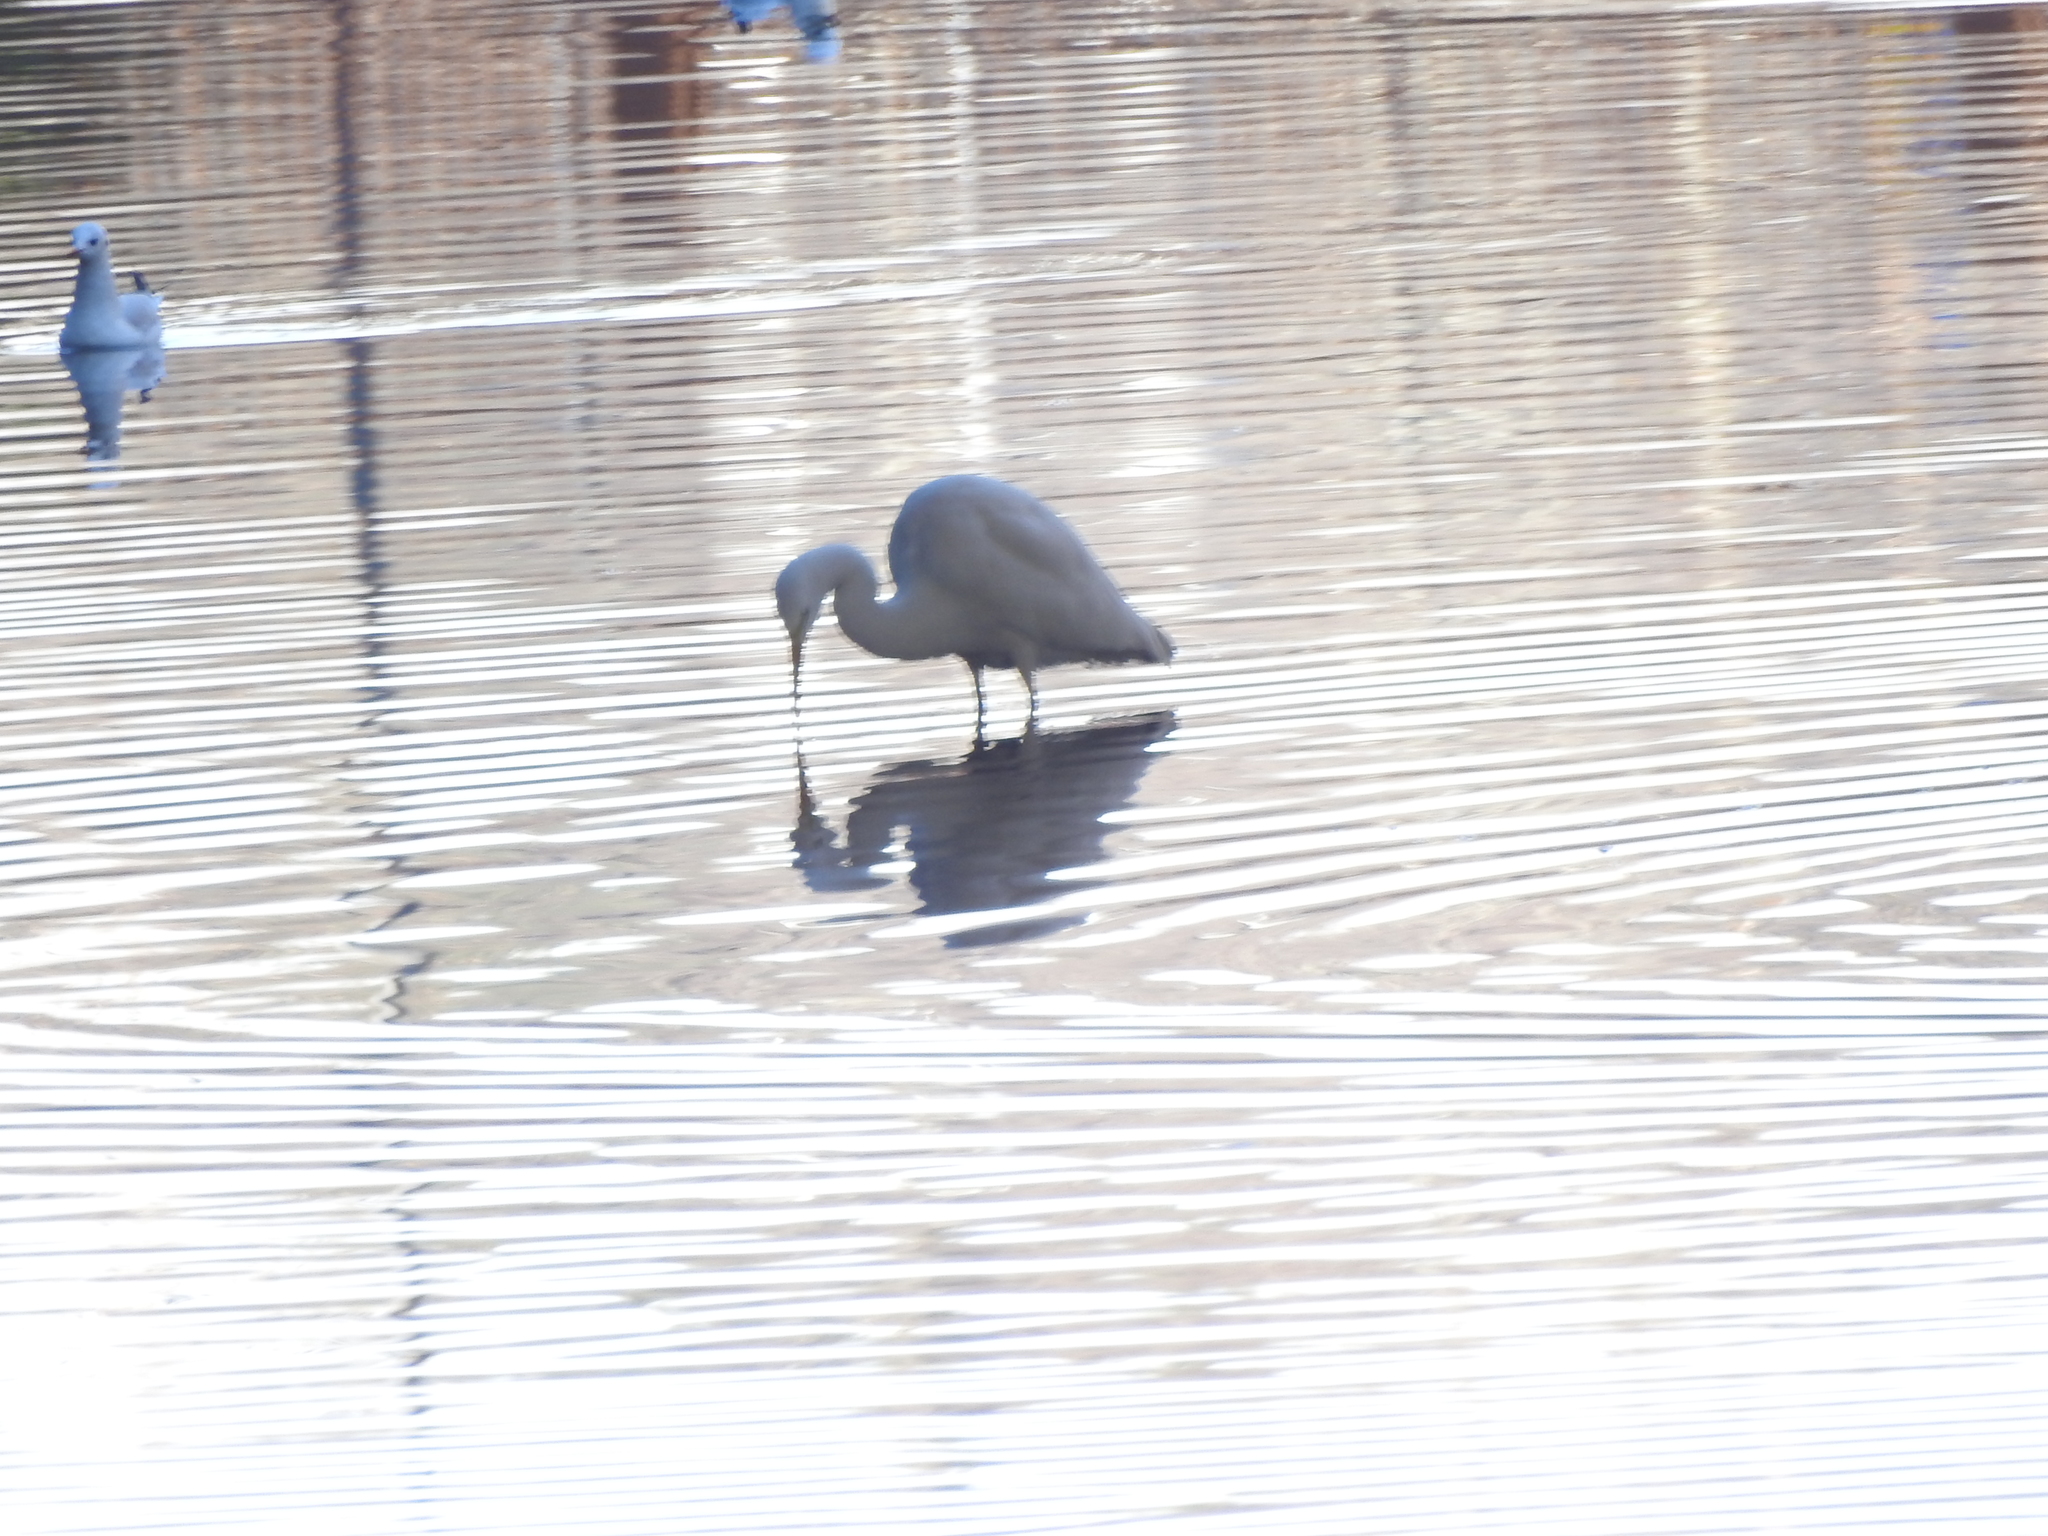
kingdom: Animalia
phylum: Chordata
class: Aves
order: Pelecaniformes
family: Ardeidae
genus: Ardea
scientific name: Ardea alba
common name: Great egret
